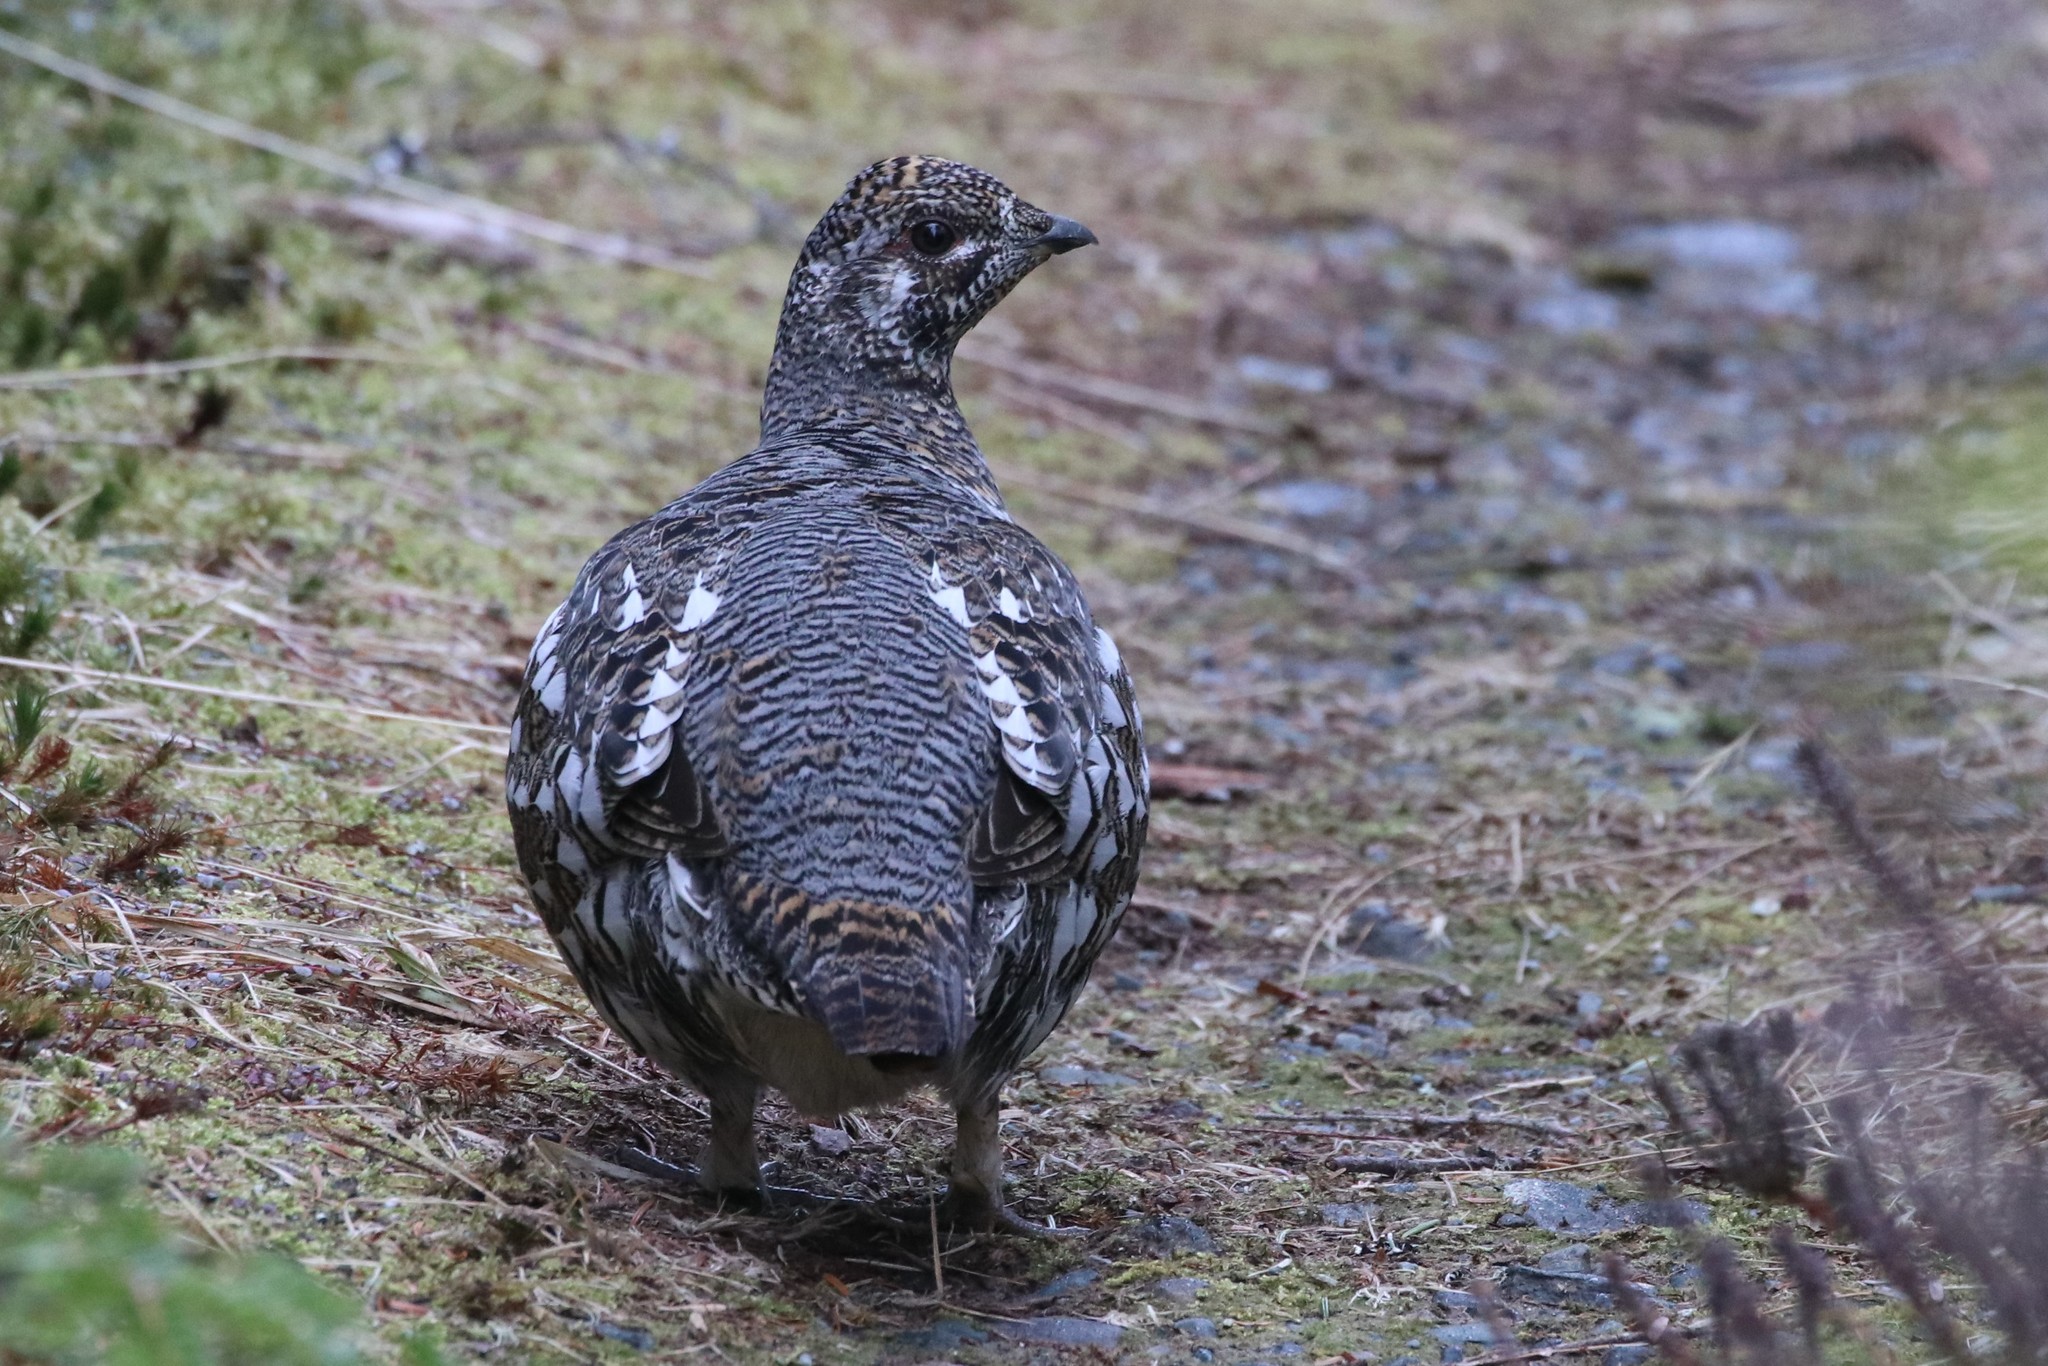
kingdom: Animalia
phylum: Chordata
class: Aves
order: Galliformes
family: Phasianidae
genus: Canachites
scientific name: Canachites canadensis
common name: Spruce grouse
